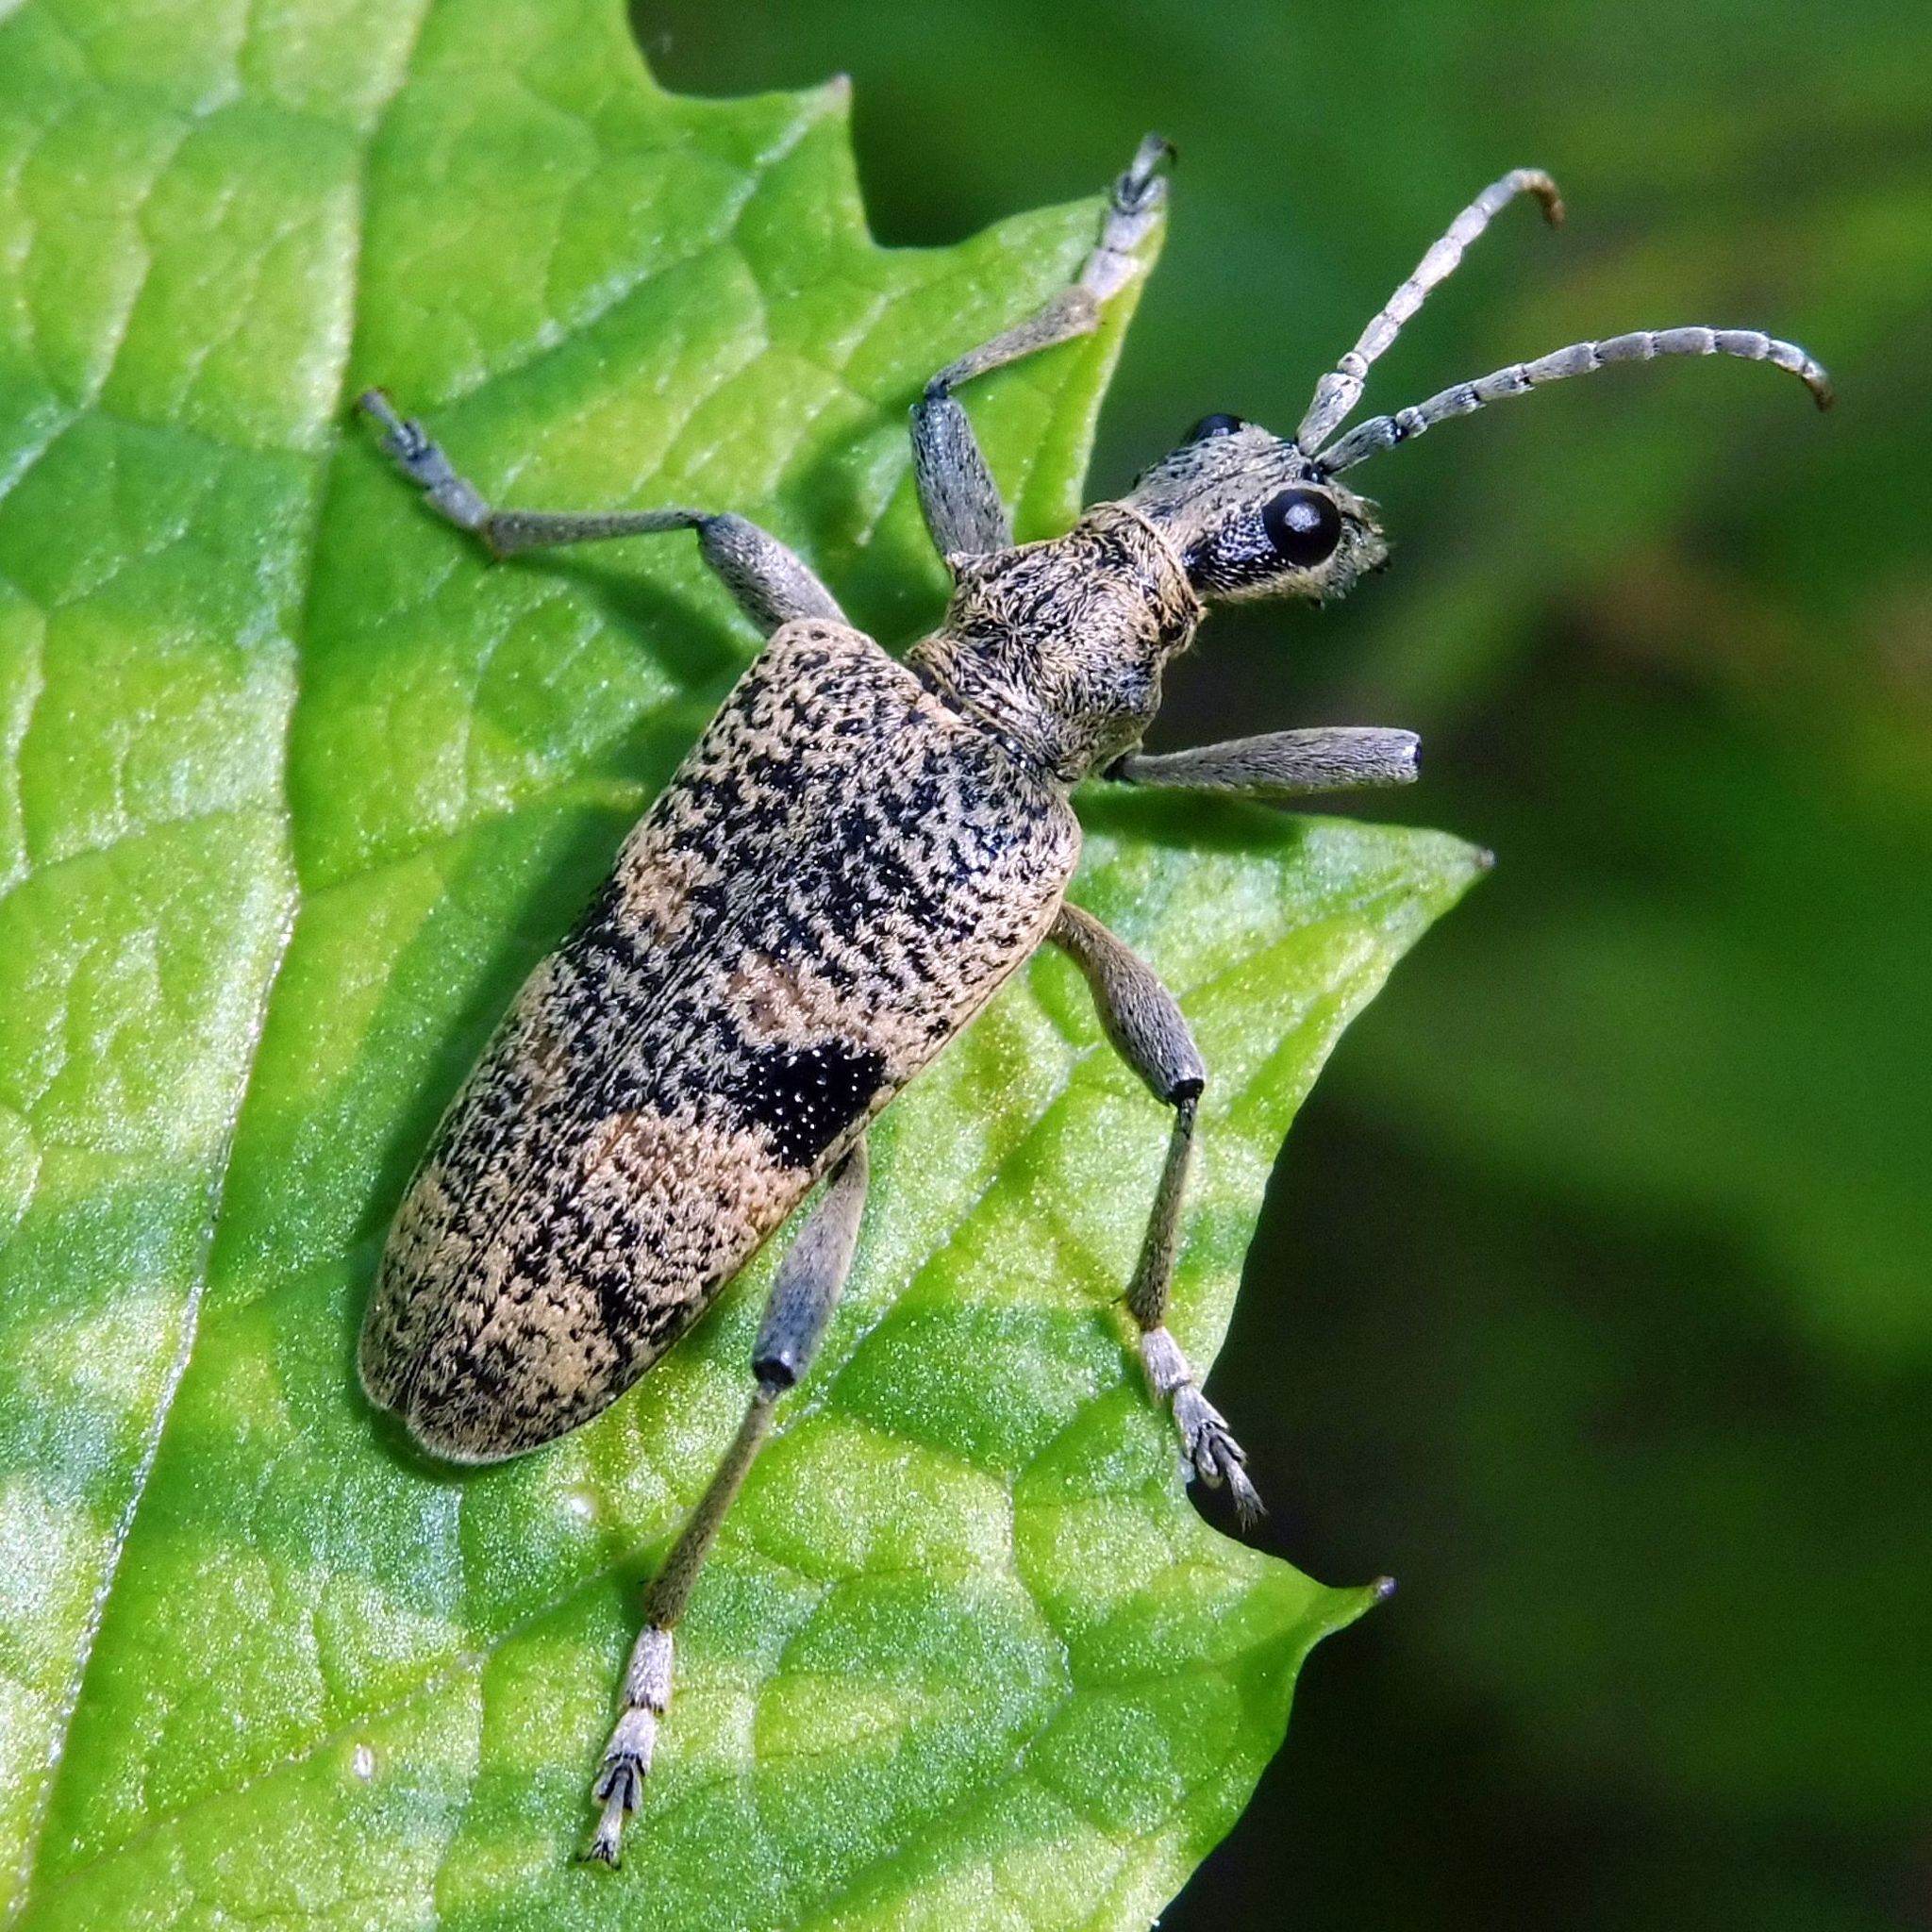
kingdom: Animalia
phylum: Arthropoda
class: Insecta
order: Coleoptera
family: Cerambycidae
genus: Rhagium
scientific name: Rhagium mordax
